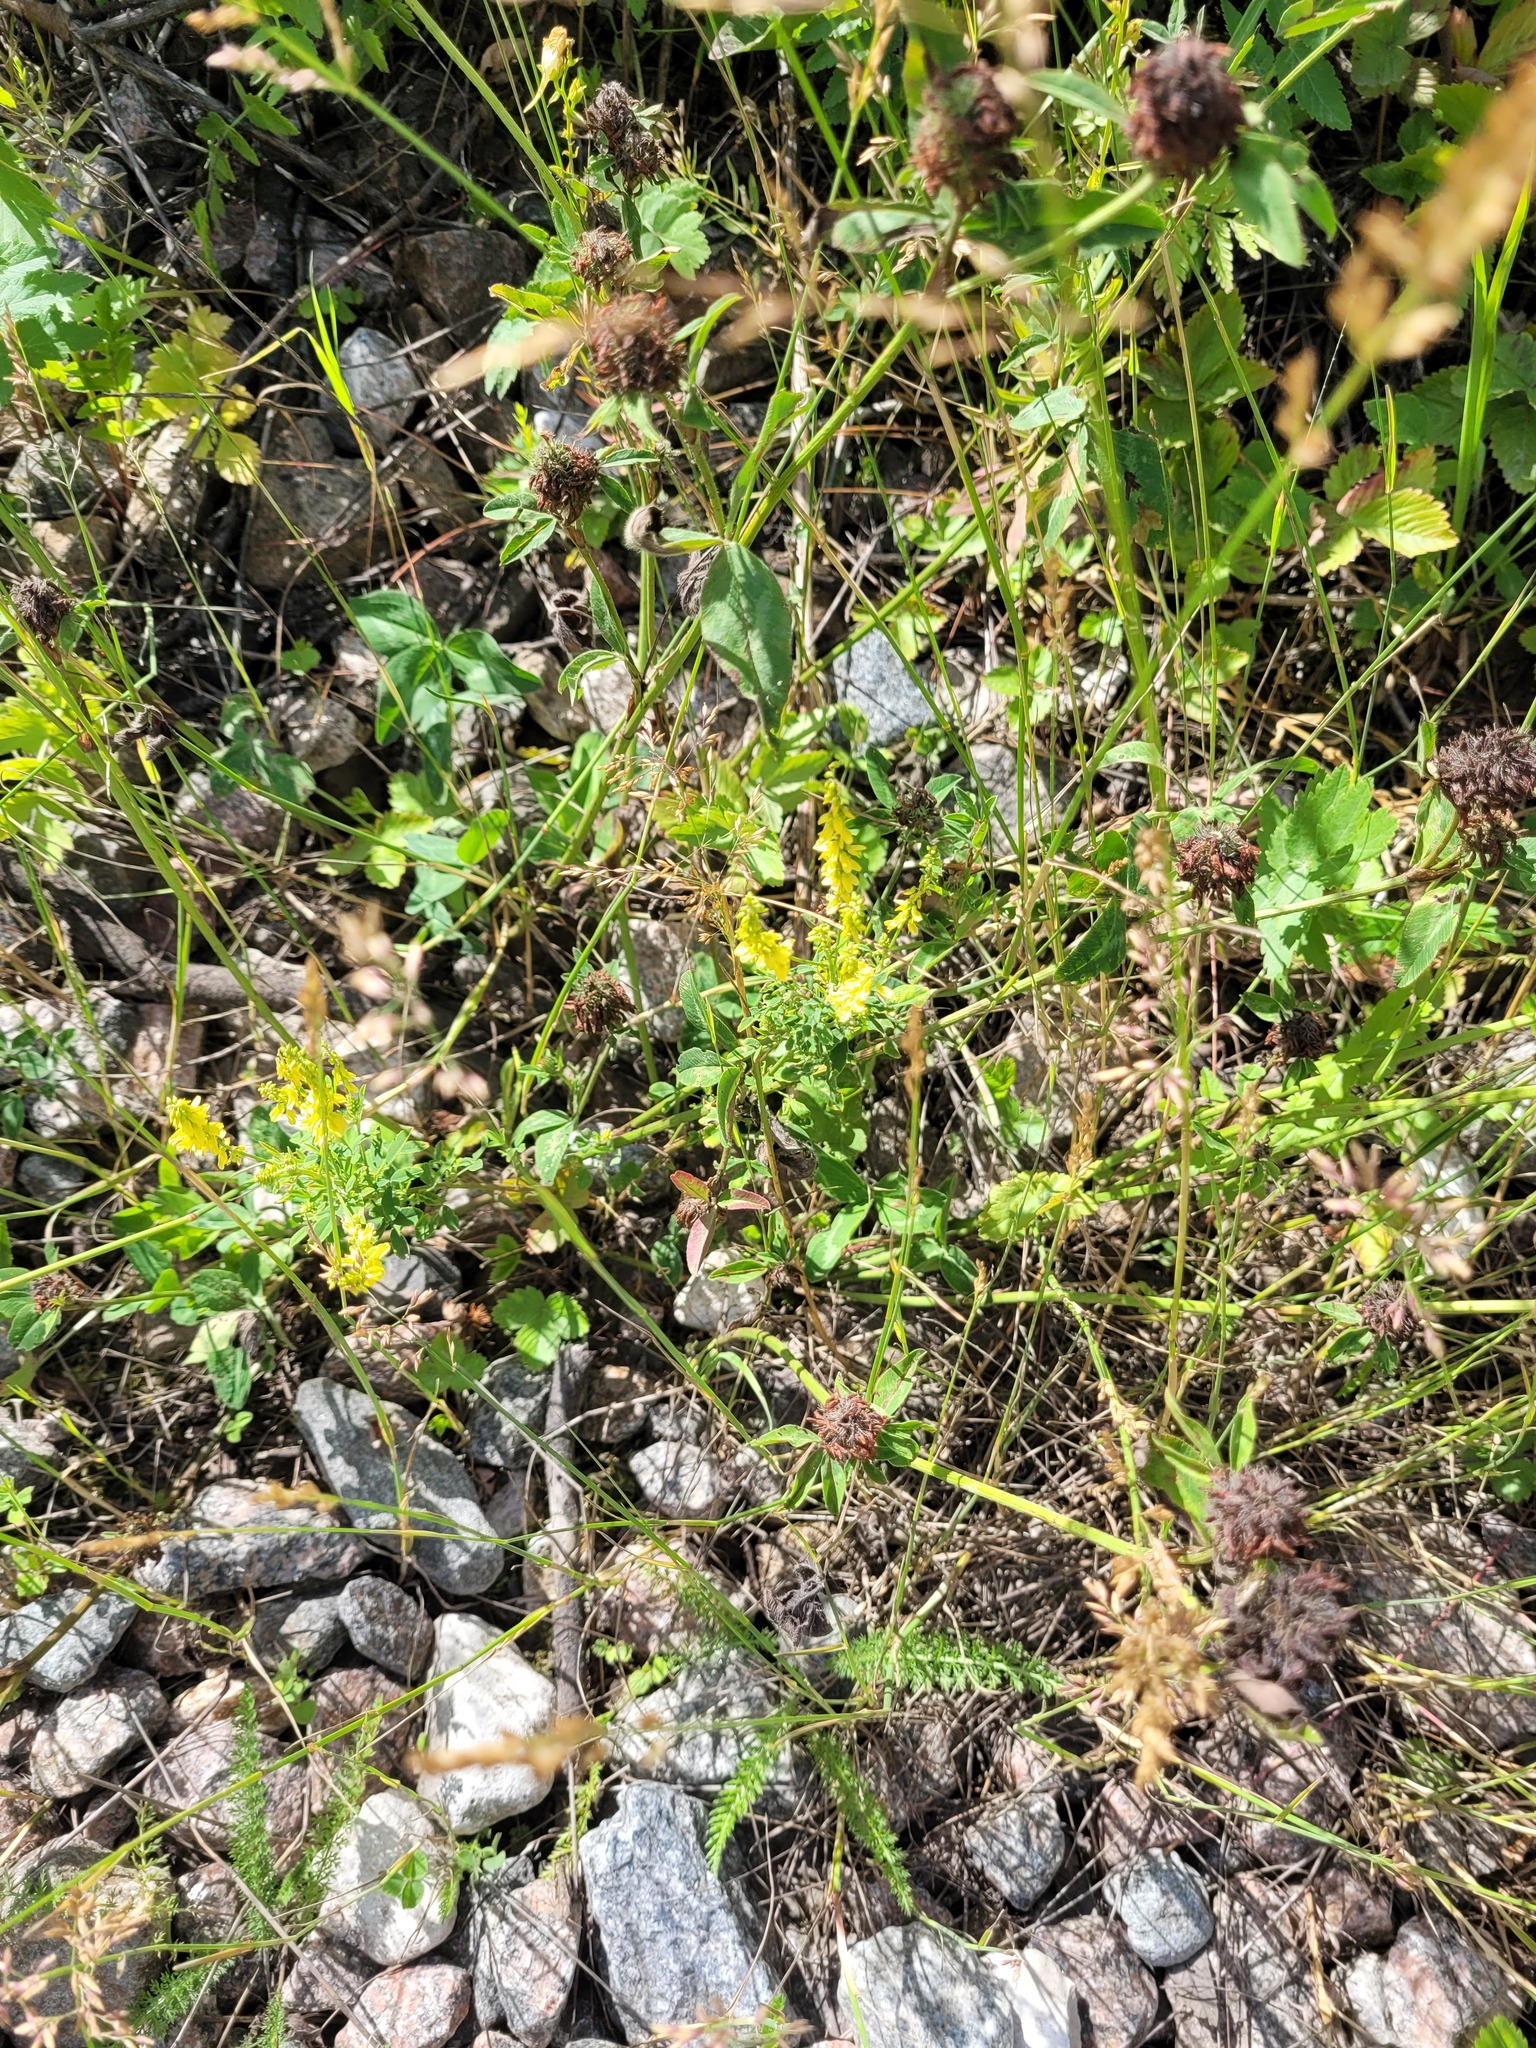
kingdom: Plantae
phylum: Tracheophyta
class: Magnoliopsida
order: Fabales
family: Fabaceae
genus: Melilotus
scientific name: Melilotus officinalis
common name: Sweetclover
